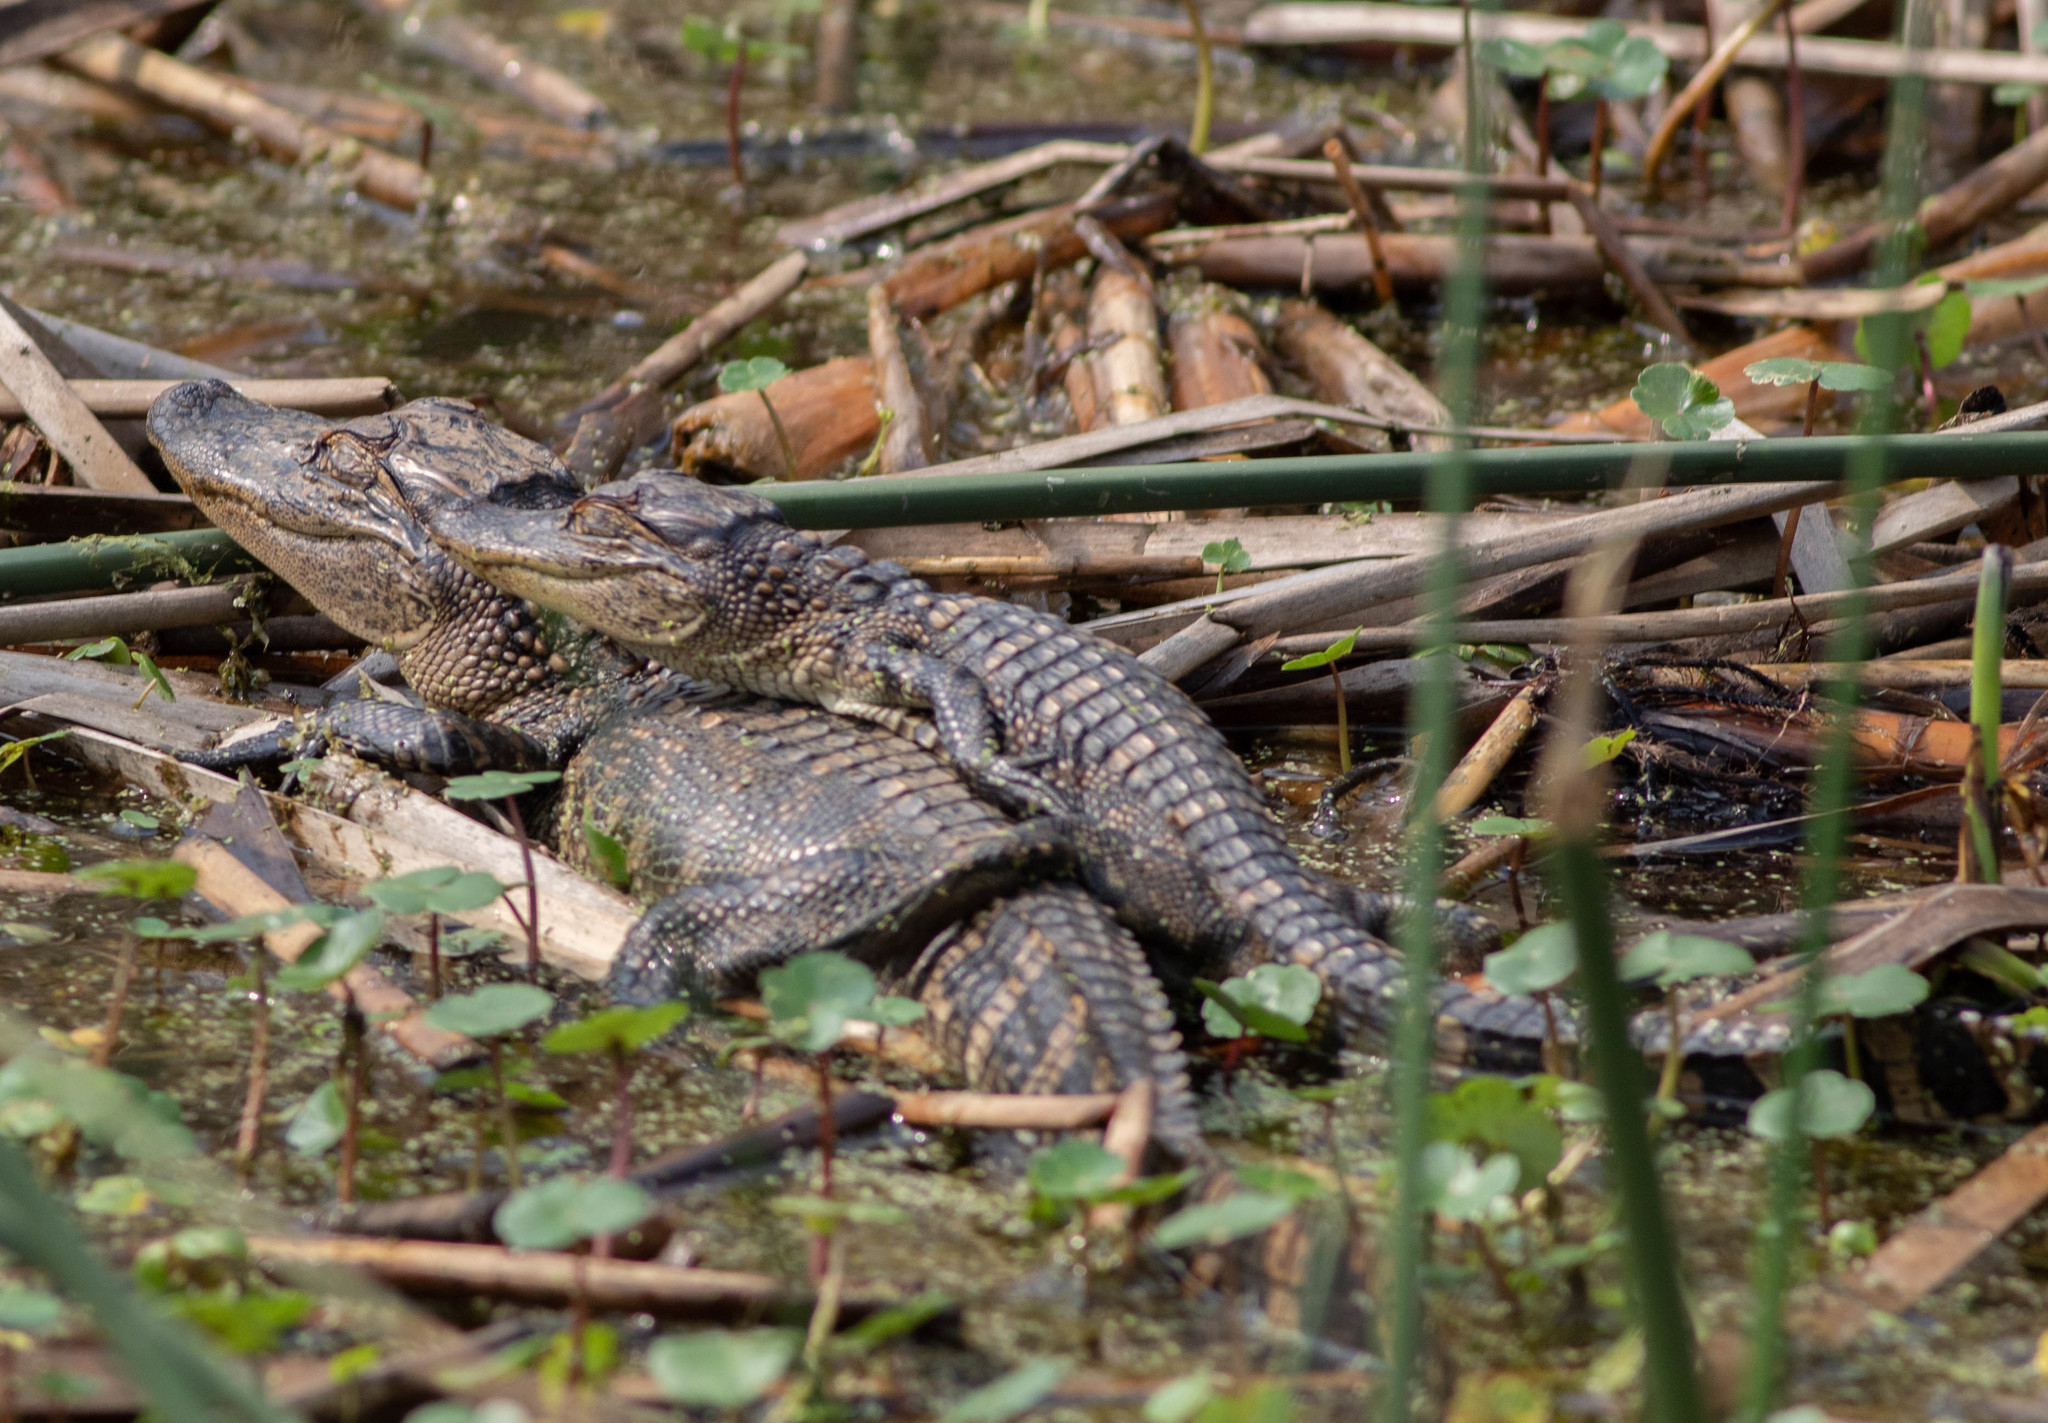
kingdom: Animalia
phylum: Chordata
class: Crocodylia
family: Alligatoridae
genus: Alligator
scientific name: Alligator mississippiensis
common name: American alligator
